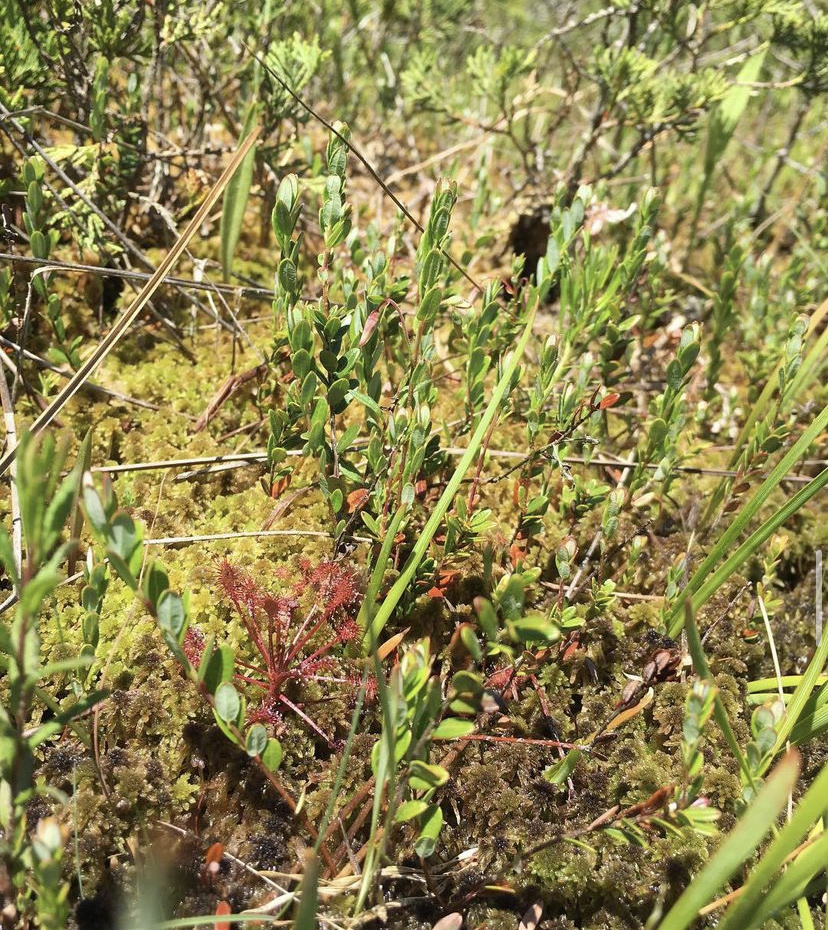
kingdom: Plantae
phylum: Tracheophyta
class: Magnoliopsida
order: Caryophyllales
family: Droseraceae
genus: Drosera
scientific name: Drosera intermedia
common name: Oblong-leaved sundew
